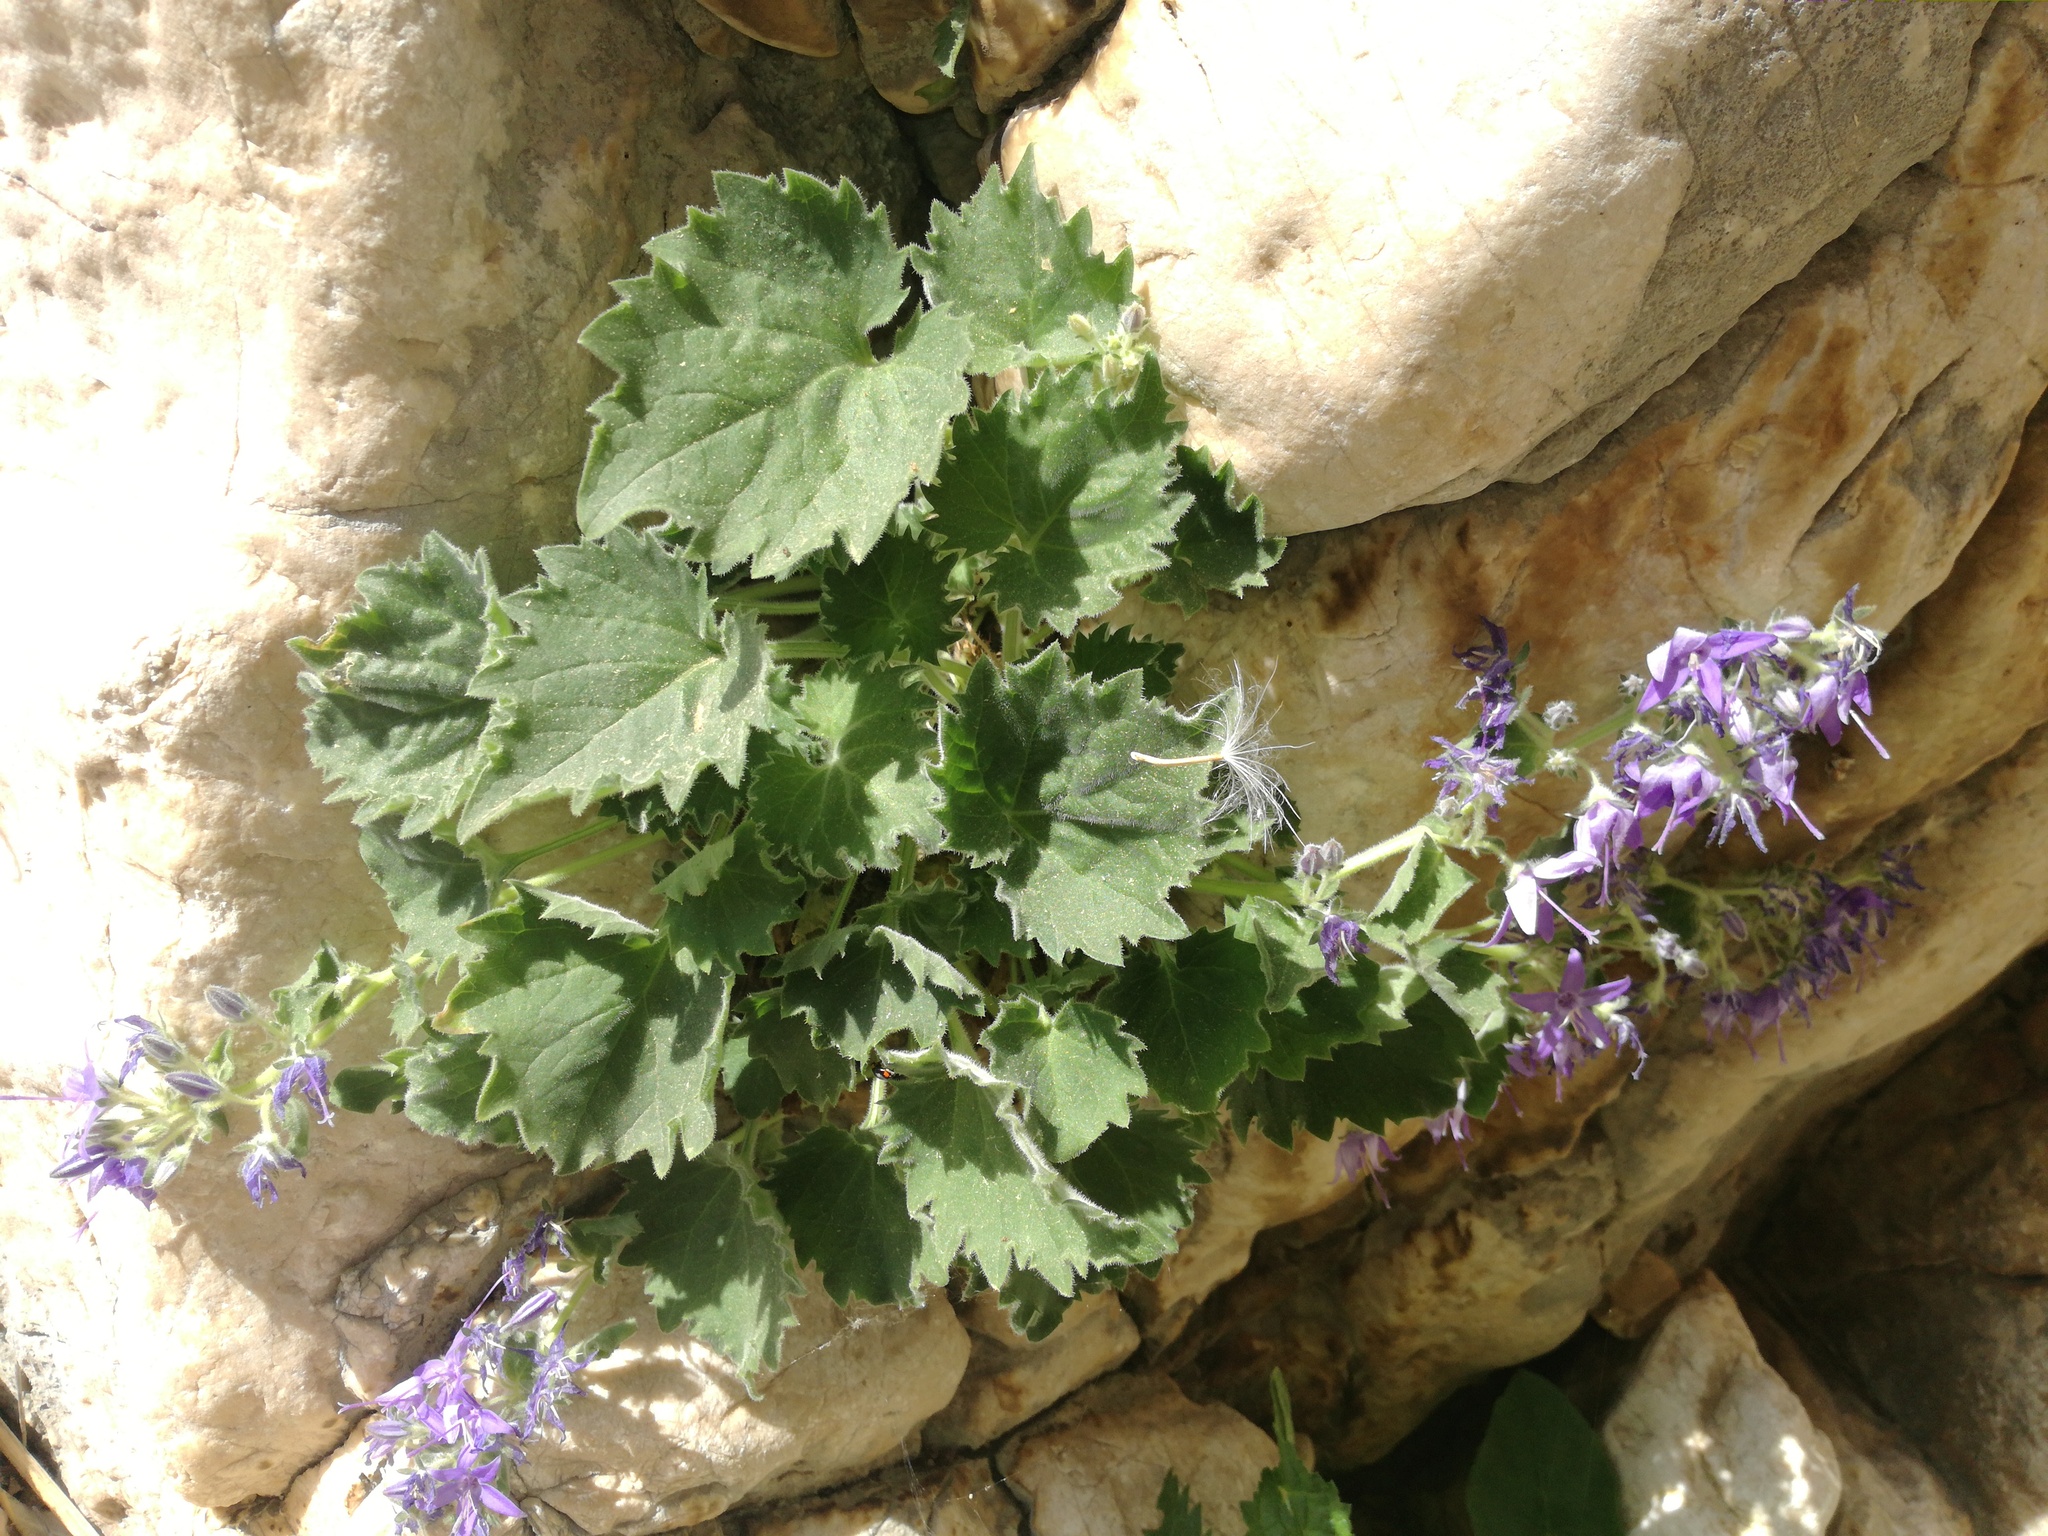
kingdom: Plantae
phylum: Tracheophyta
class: Magnoliopsida
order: Asterales
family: Campanulaceae
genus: Campanula
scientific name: Campanula fenestrellata
